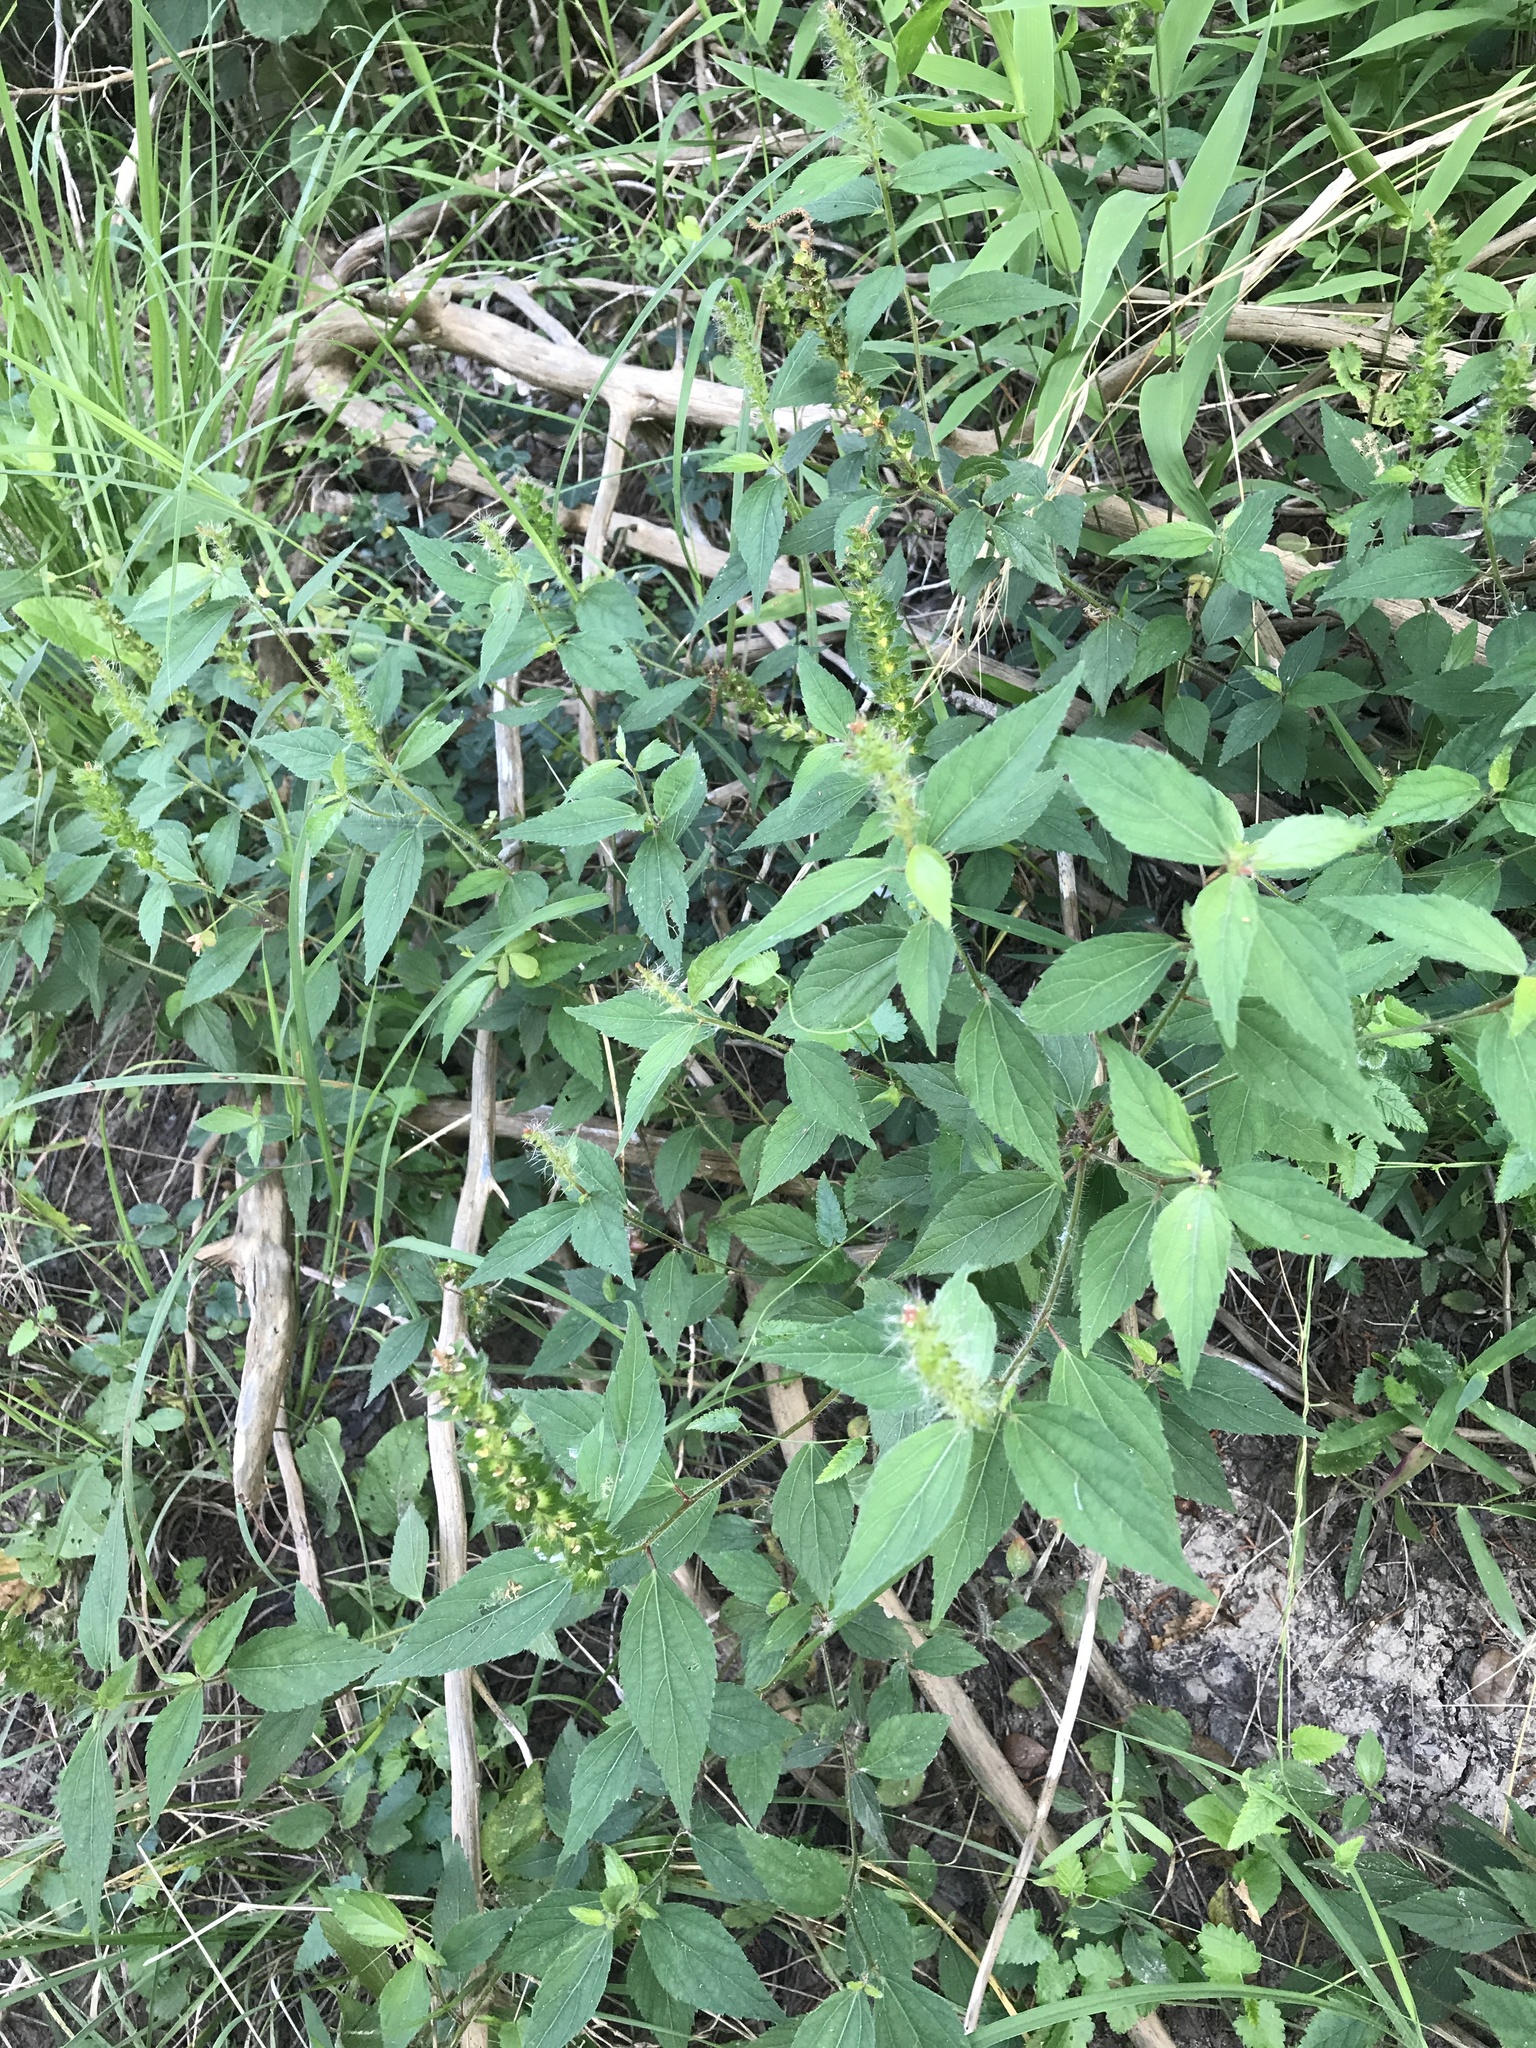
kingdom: Plantae
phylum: Tracheophyta
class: Magnoliopsida
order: Malpighiales
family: Euphorbiaceae
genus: Acalypha
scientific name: Acalypha phleoides
